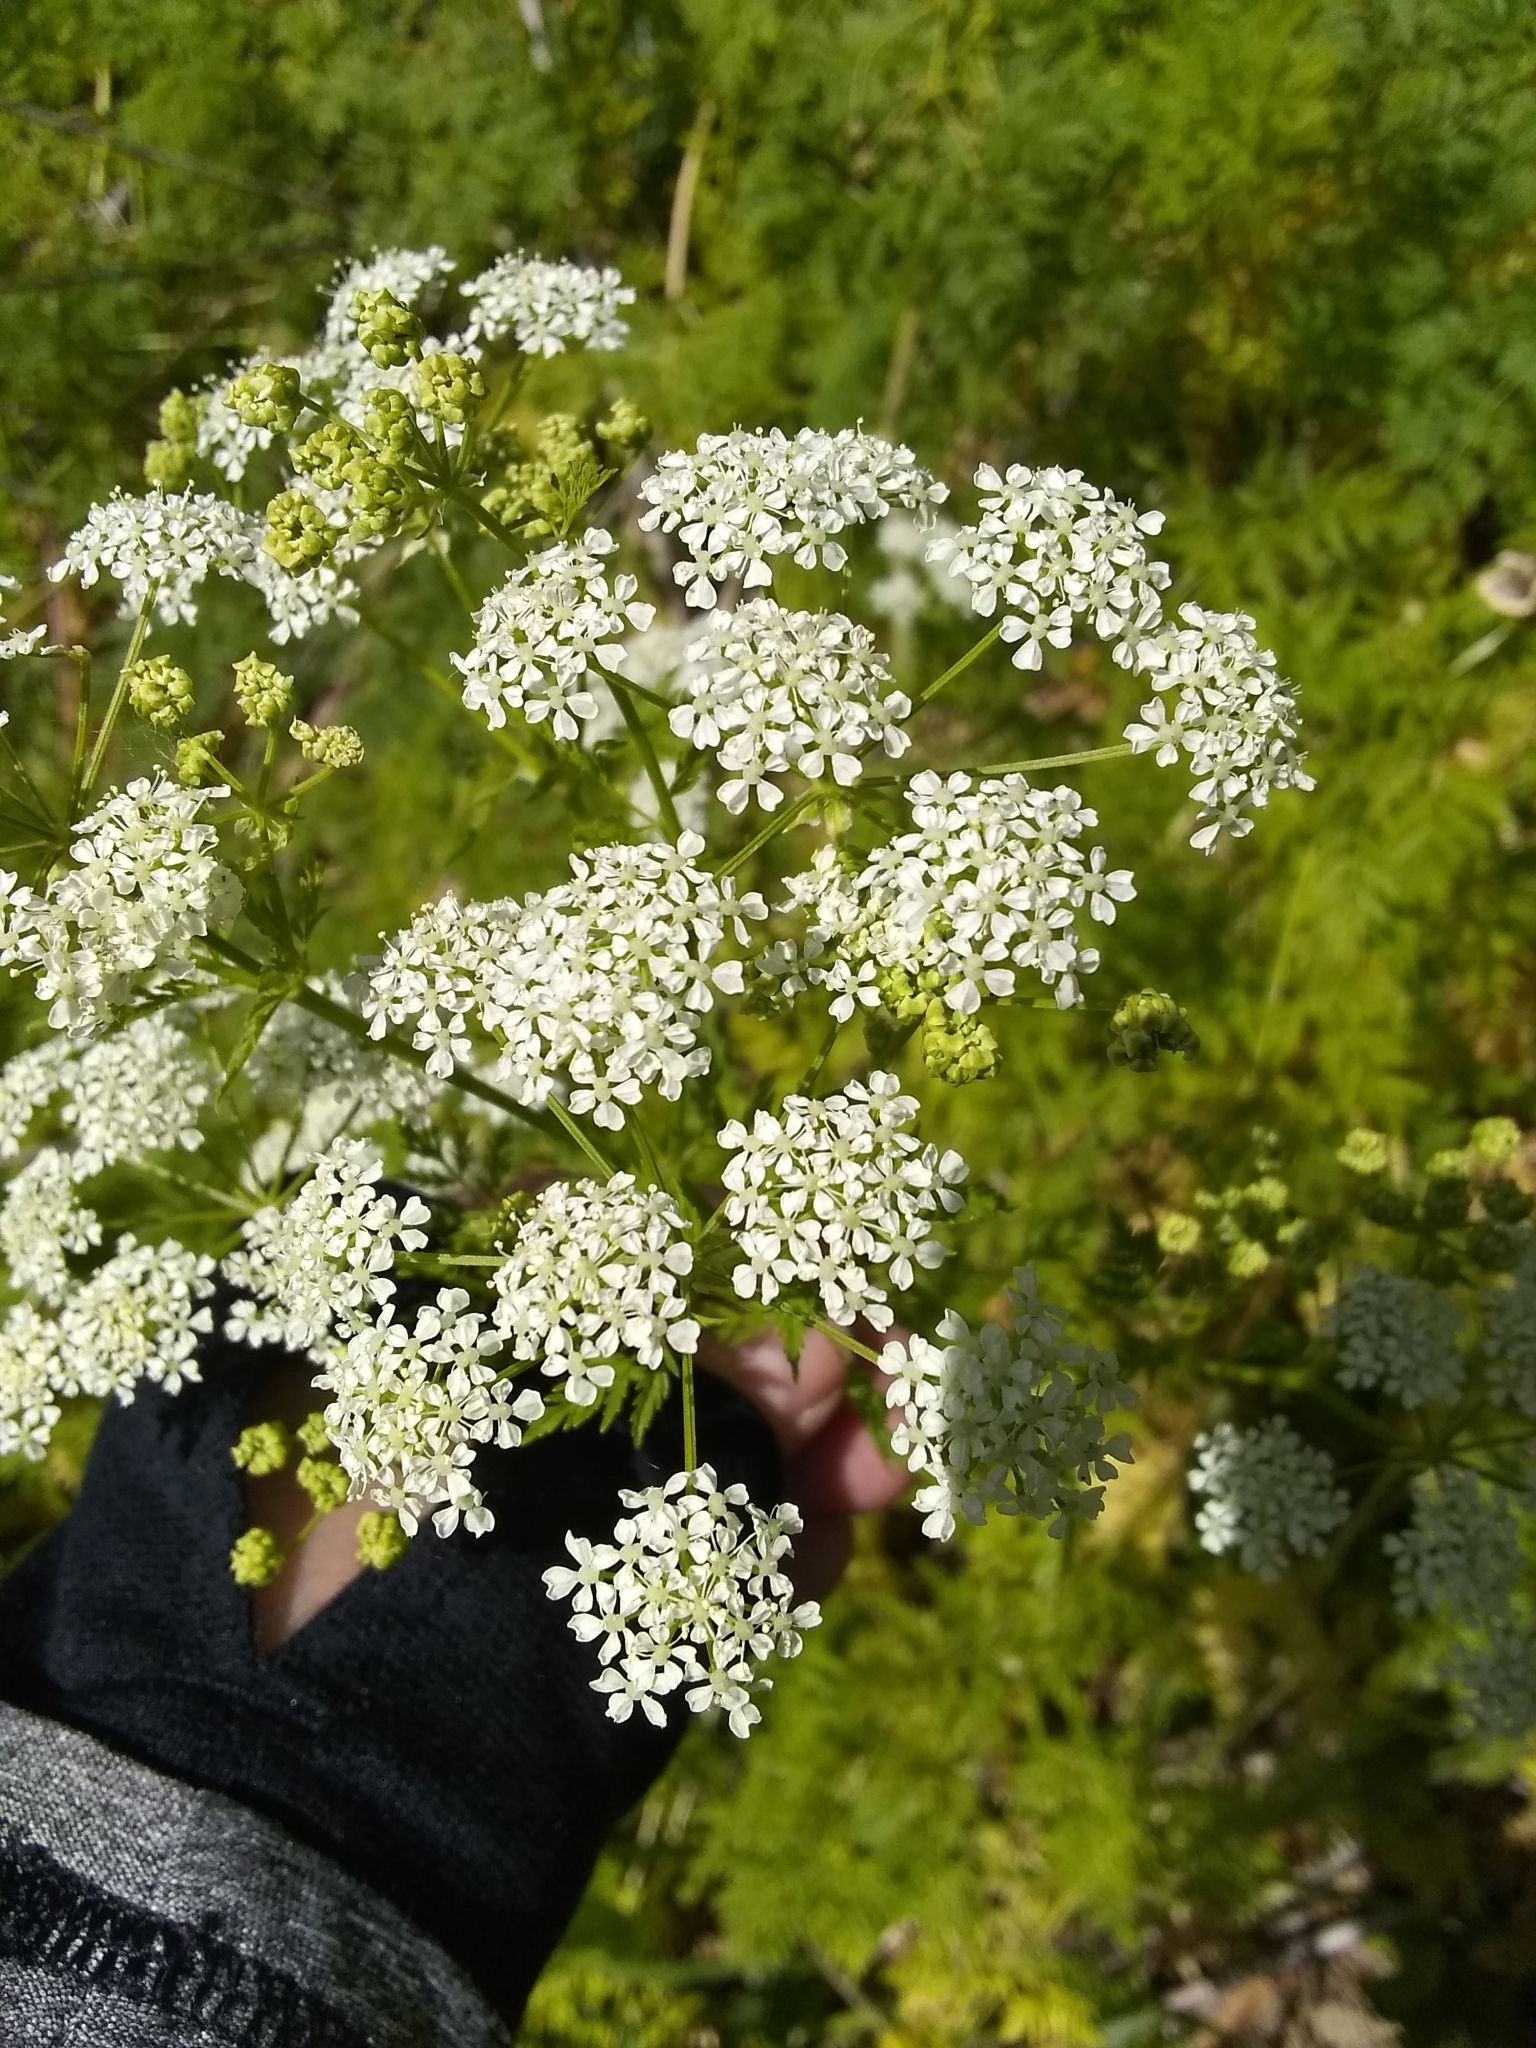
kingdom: Plantae
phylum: Tracheophyta
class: Magnoliopsida
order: Apiales
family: Apiaceae
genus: Conium
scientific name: Conium maculatum
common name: Hemlock
